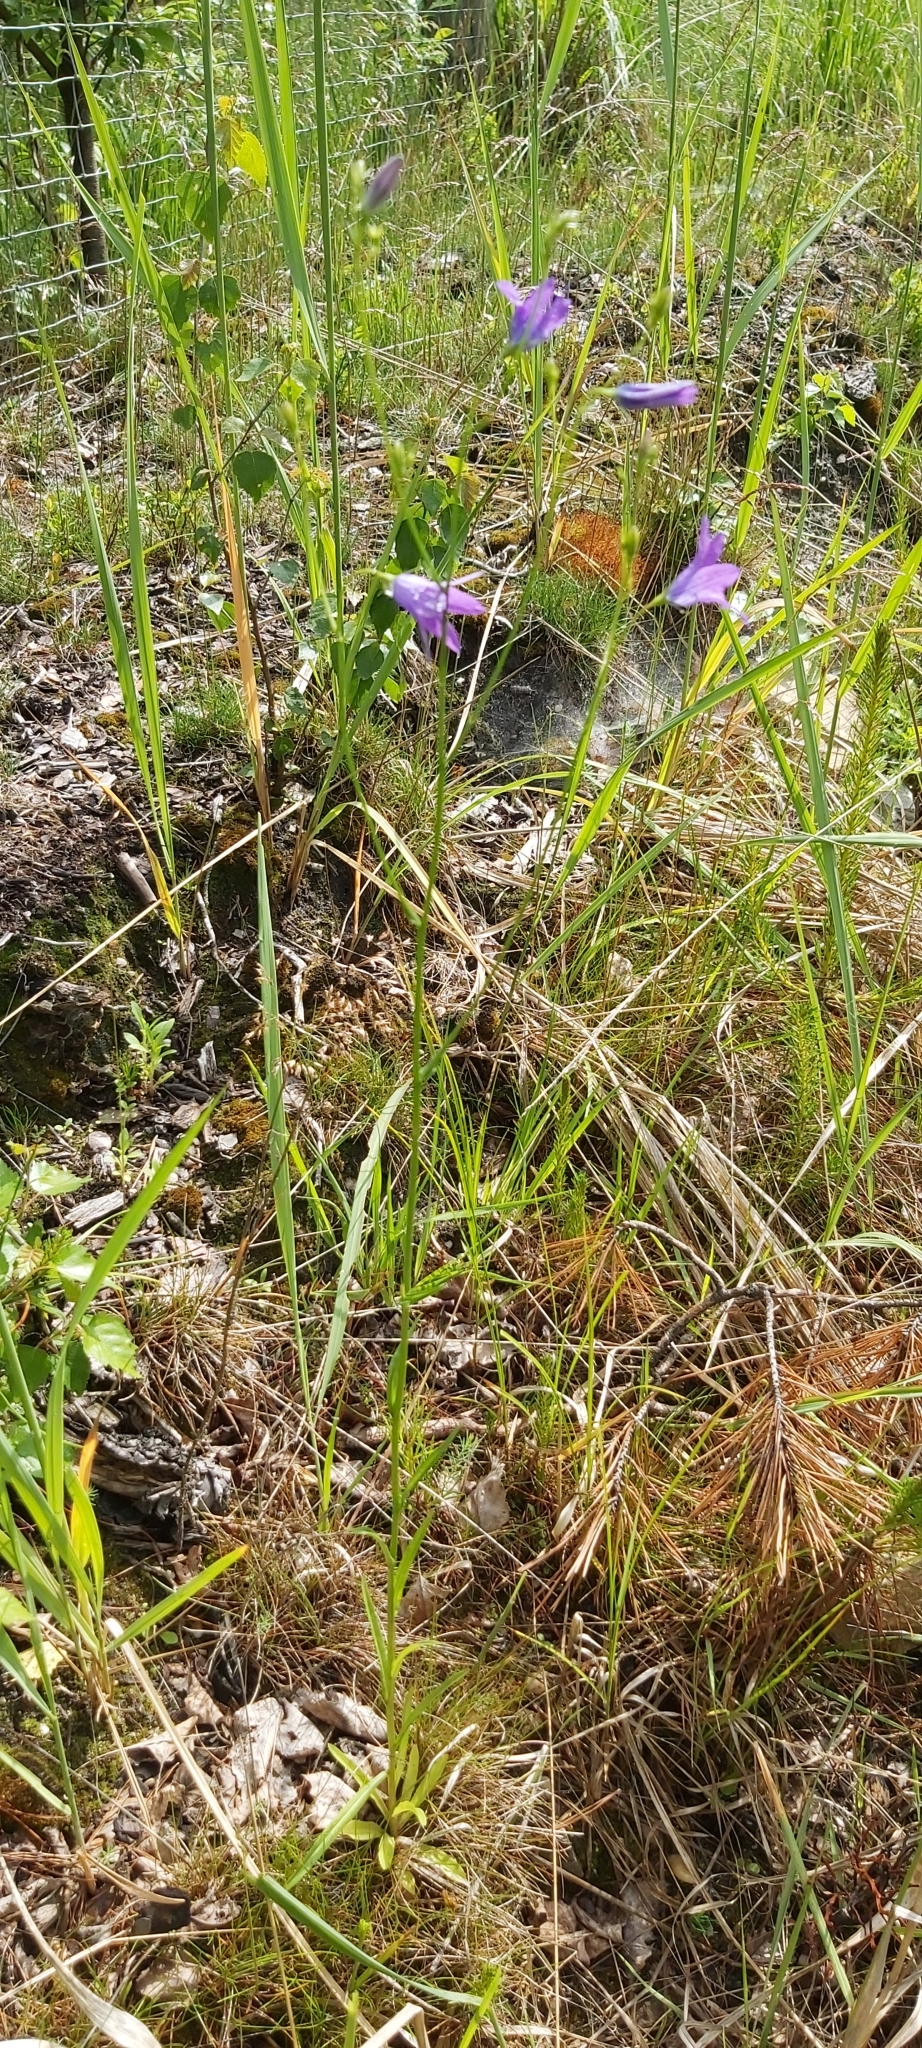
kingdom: Plantae
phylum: Tracheophyta
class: Magnoliopsida
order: Asterales
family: Campanulaceae
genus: Campanula
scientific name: Campanula patula
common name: Spreading bellflower
